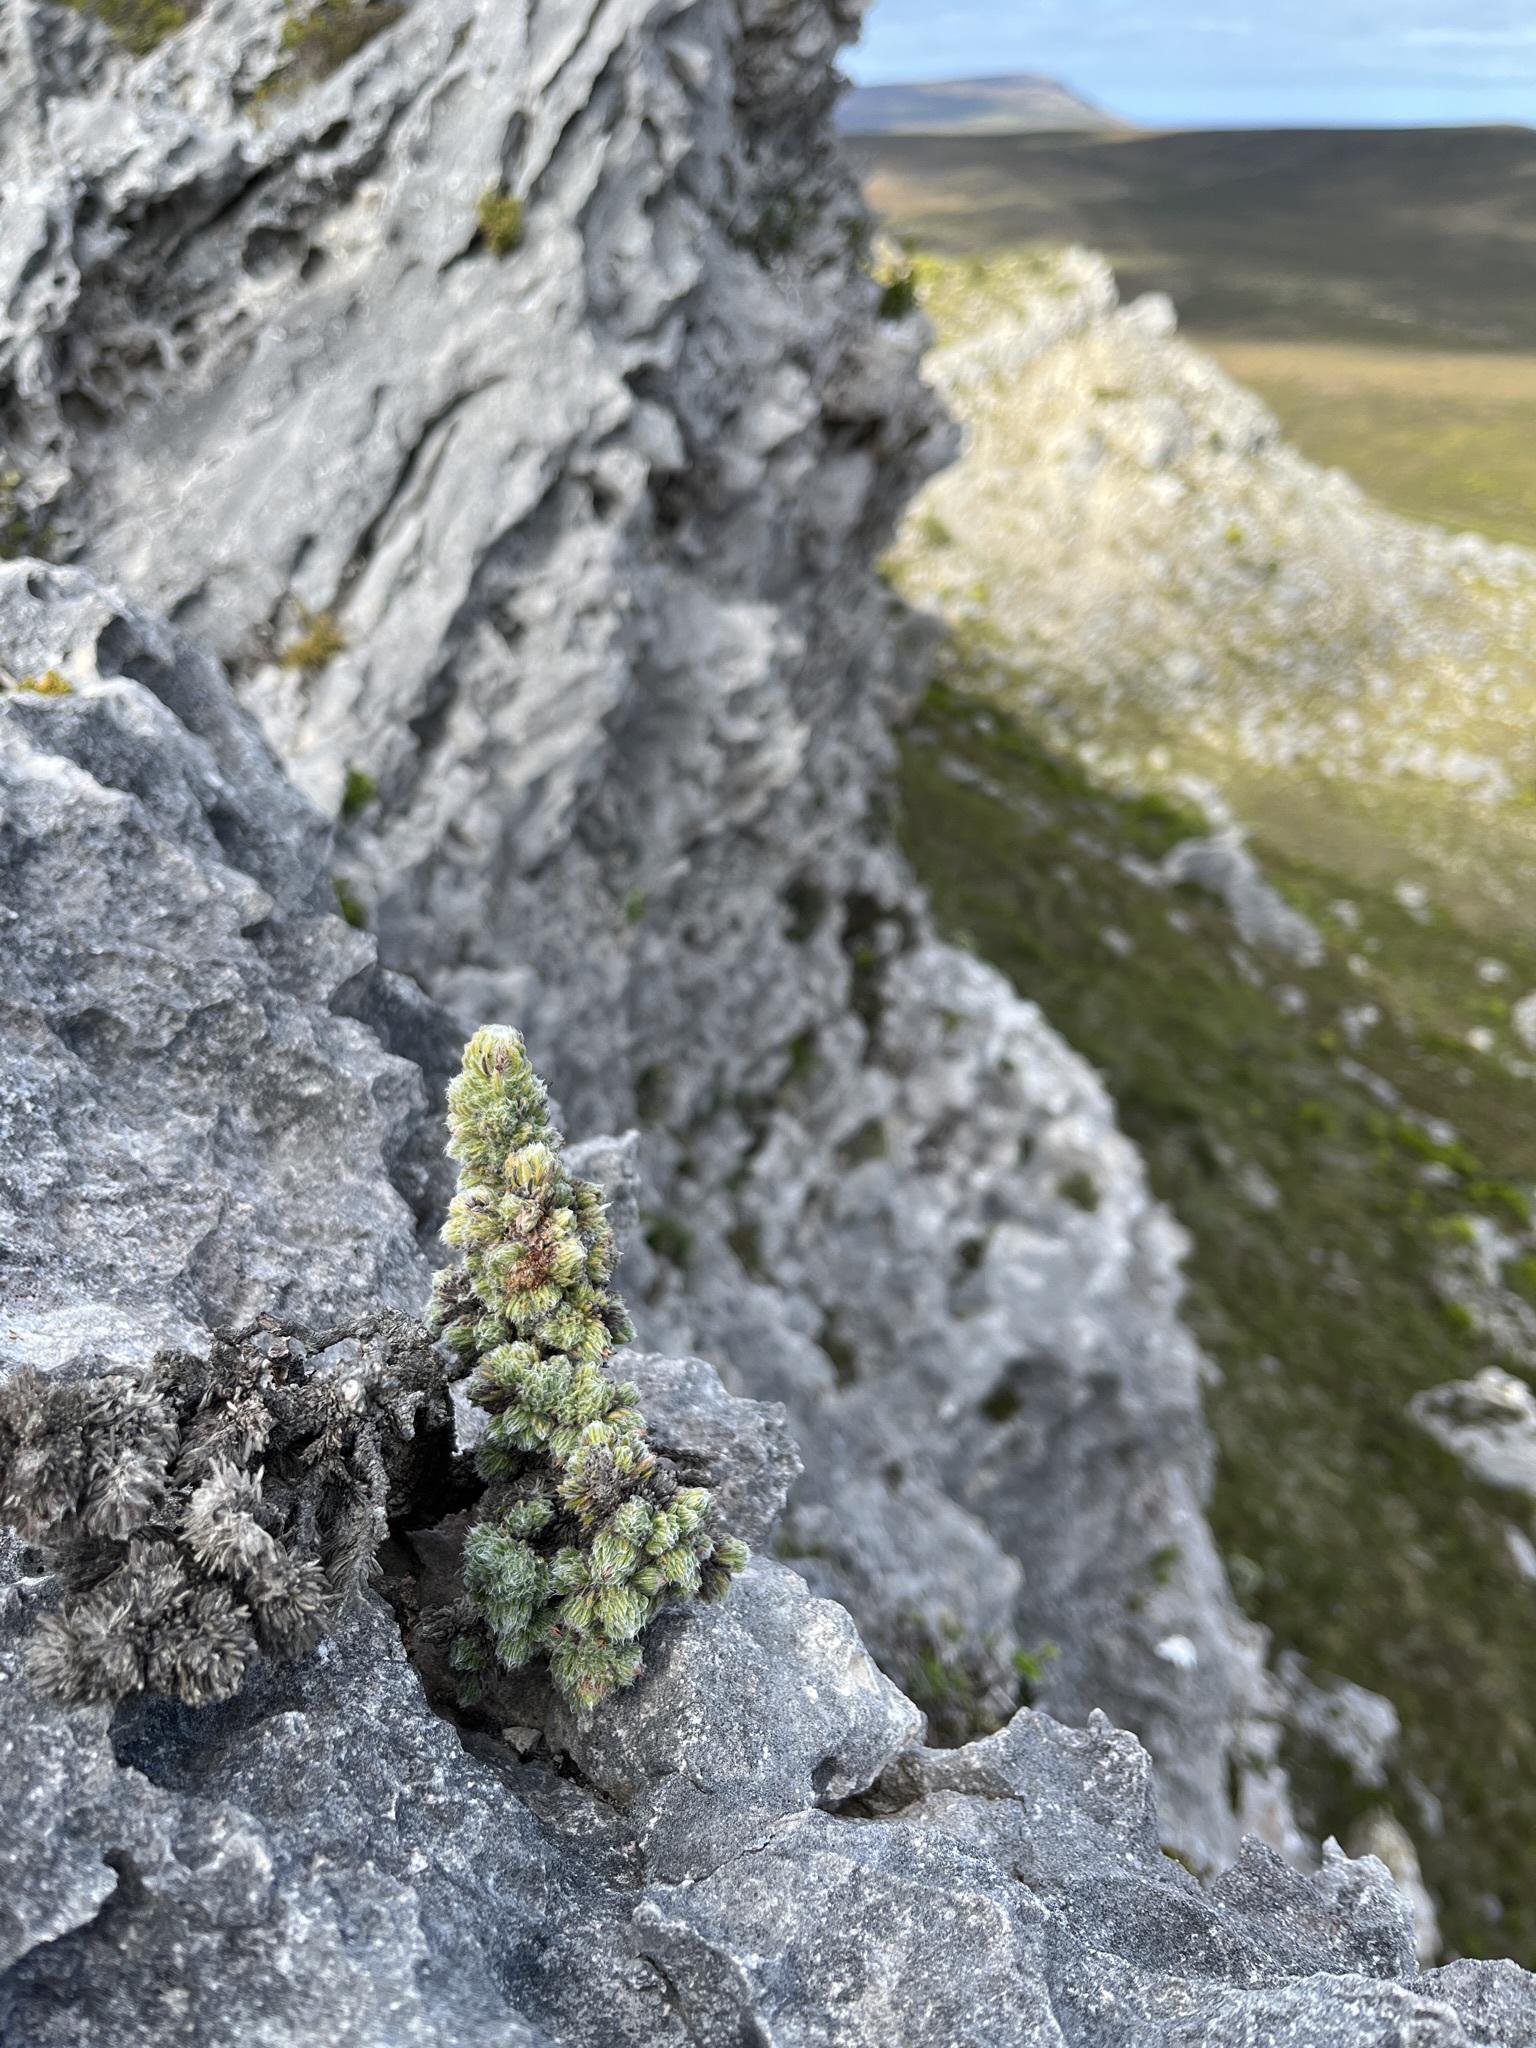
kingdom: Plantae
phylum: Tracheophyta
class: Magnoliopsida
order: Ericales
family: Ericaceae
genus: Erica
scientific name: Erica occulta
